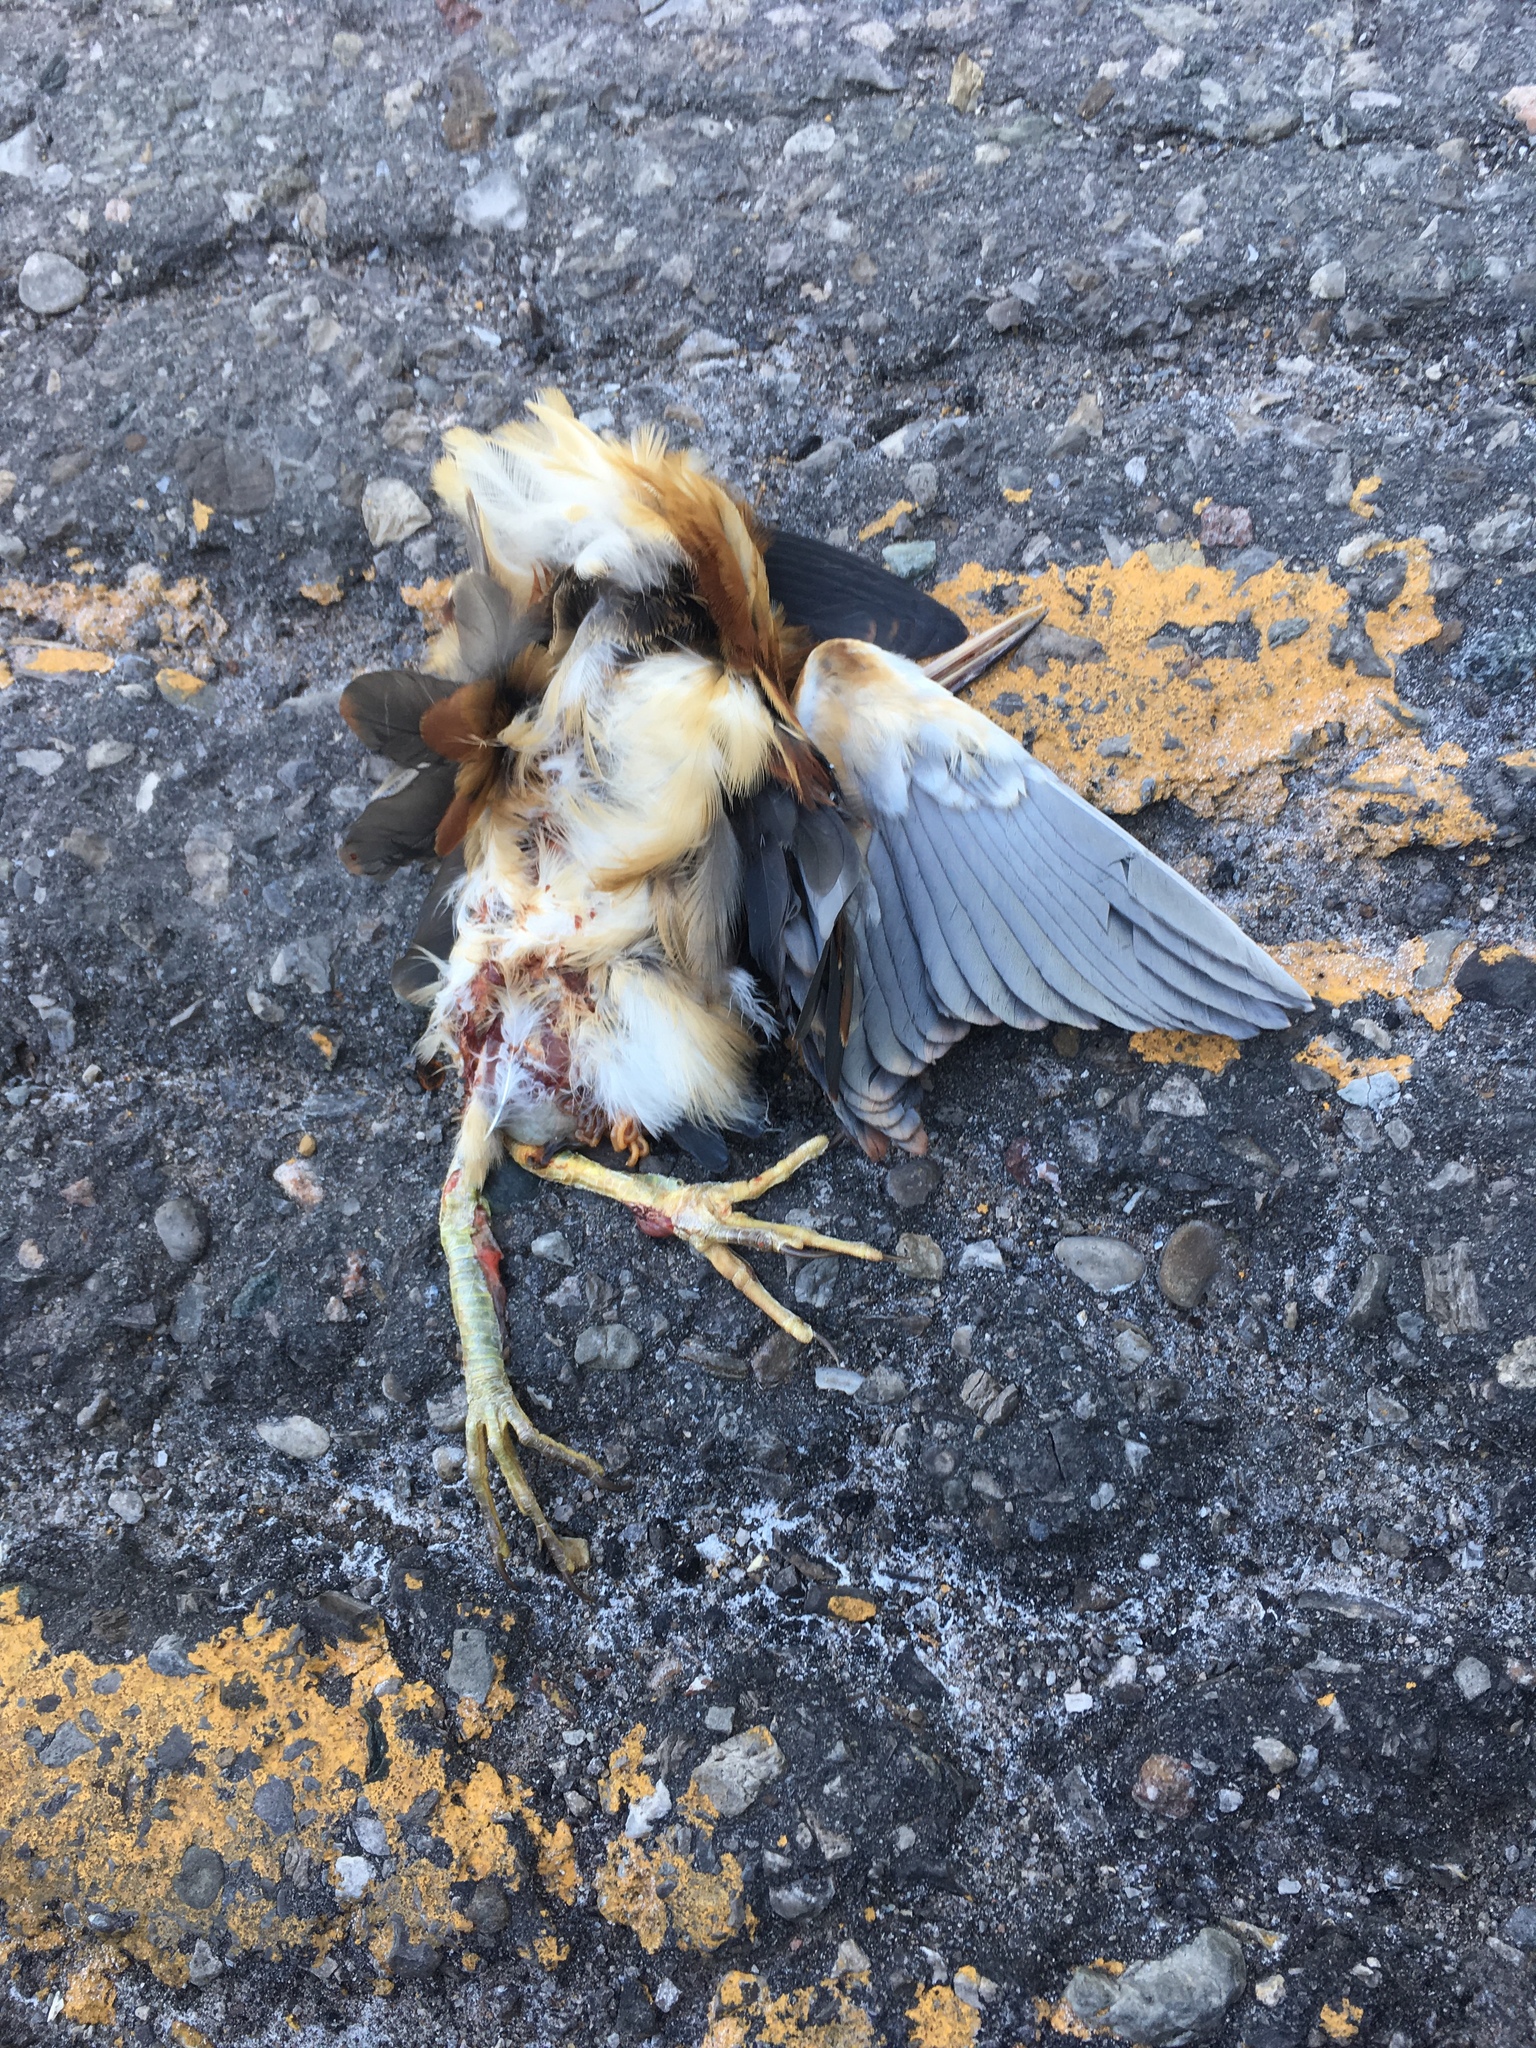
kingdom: Animalia
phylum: Chordata
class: Aves
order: Pelecaniformes
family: Ardeidae
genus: Ixobrychus
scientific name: Ixobrychus exilis
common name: Least bittern
